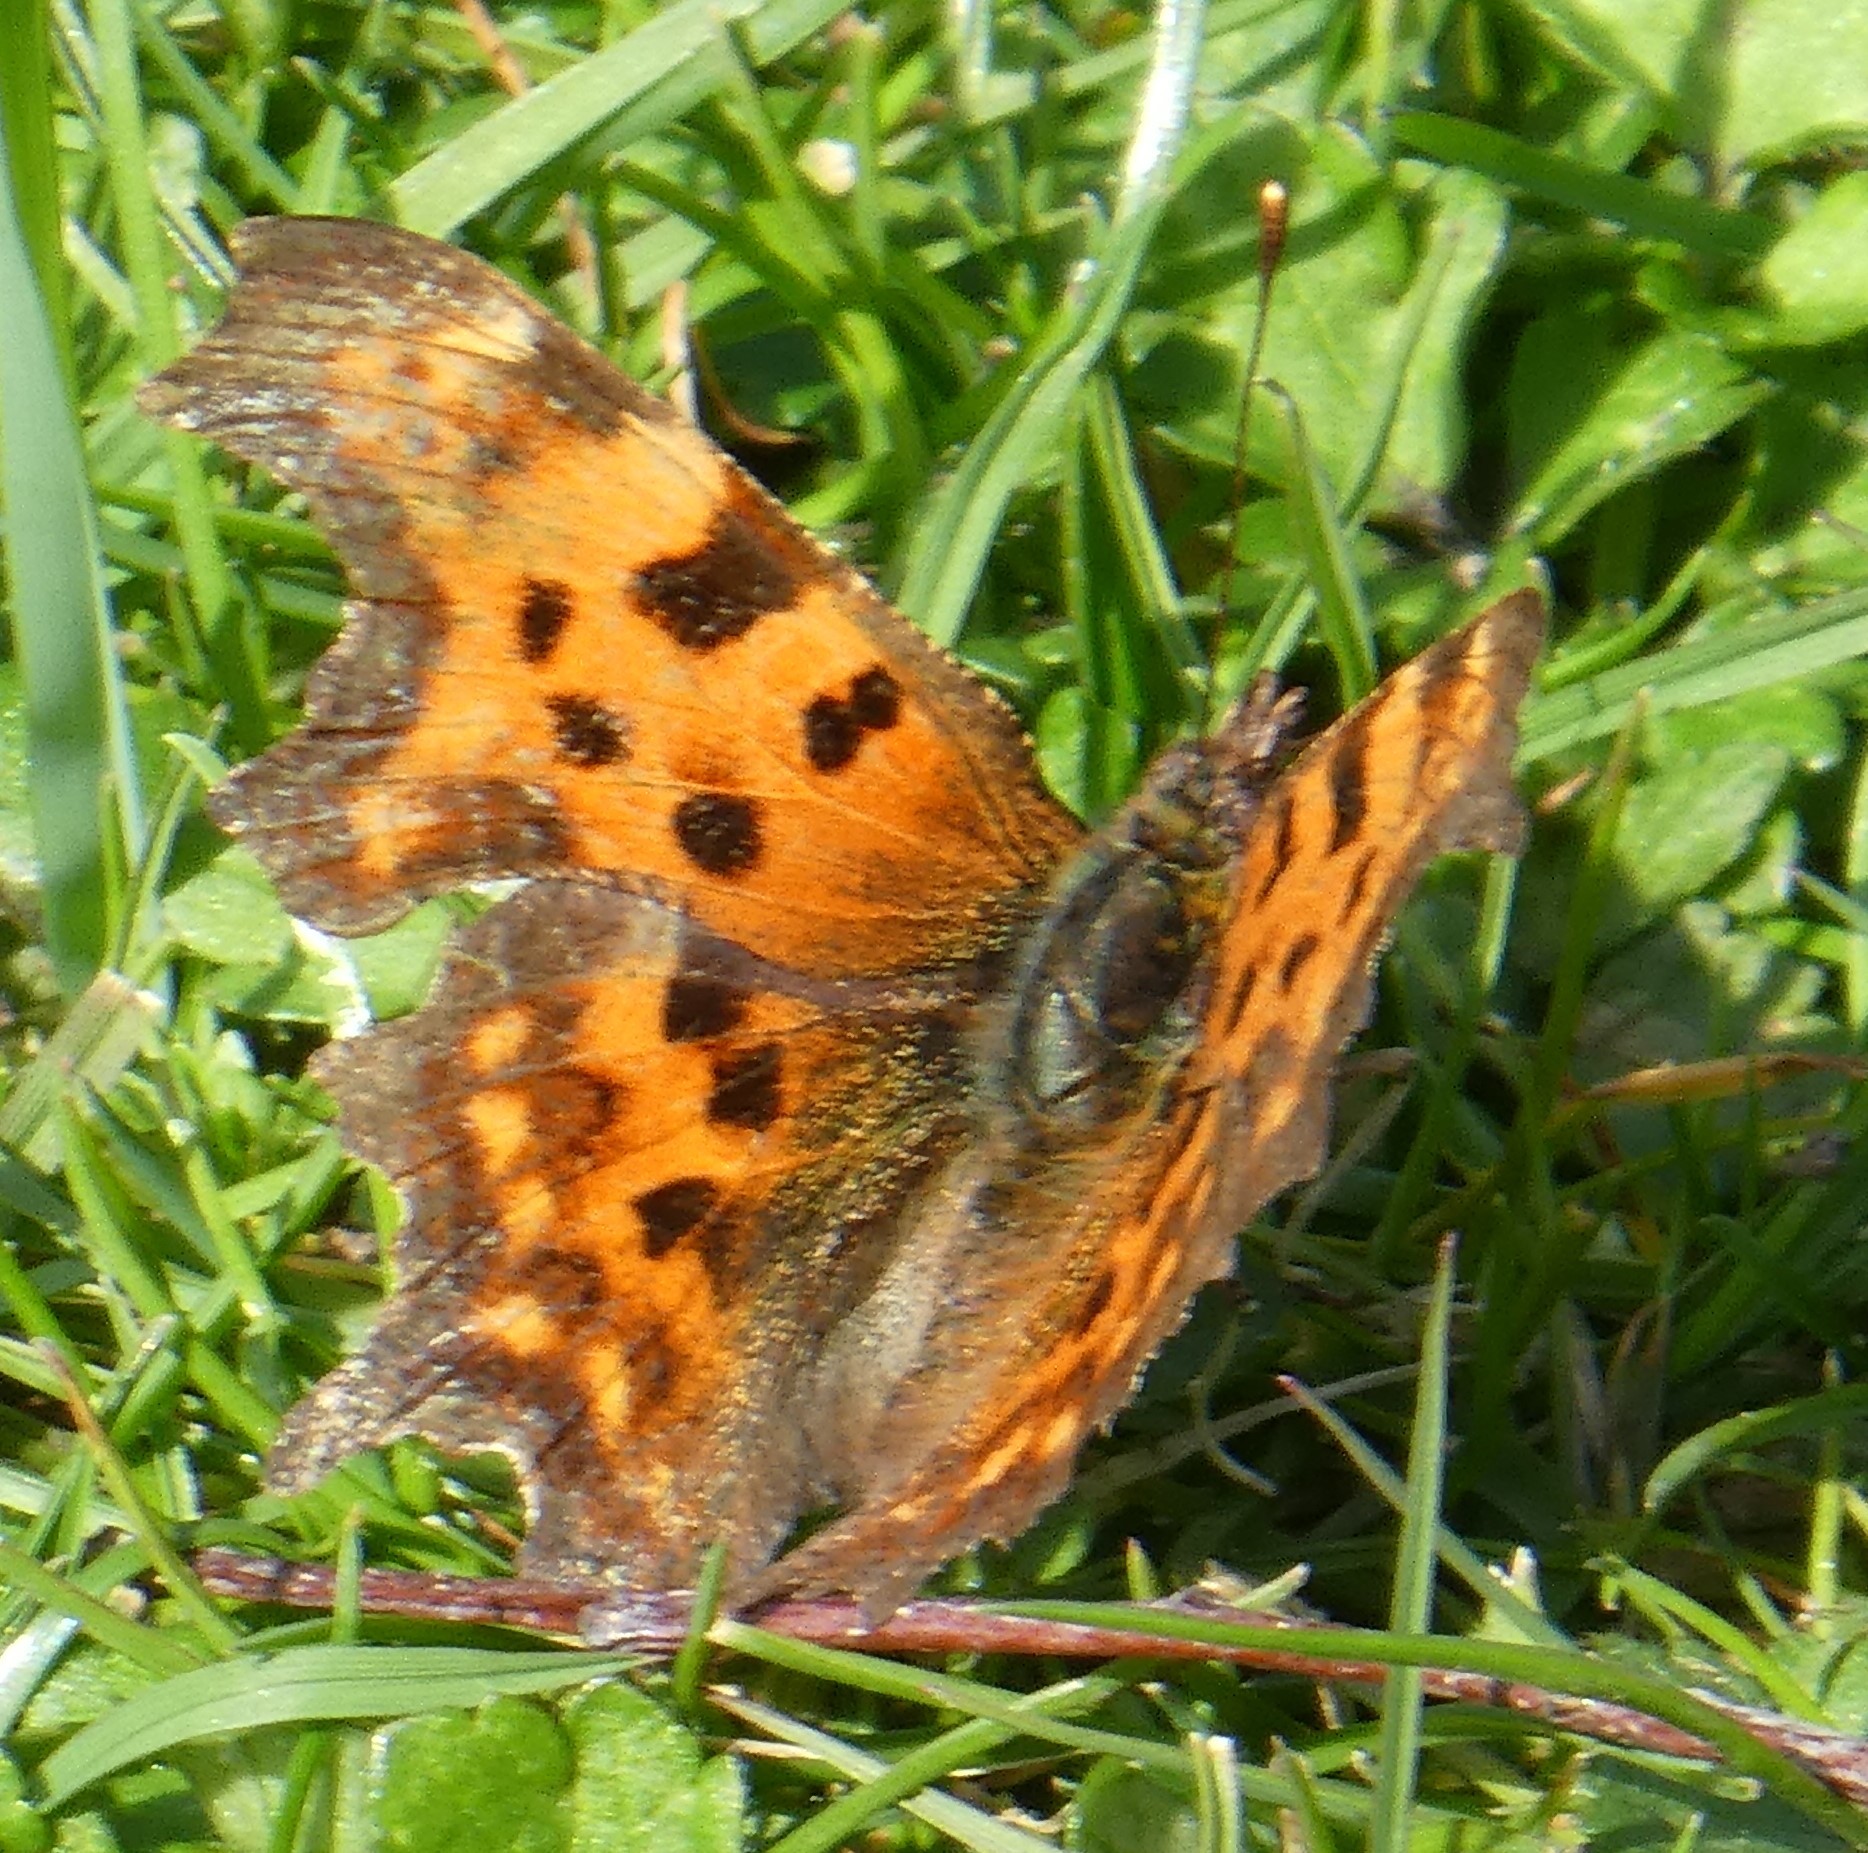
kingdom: Animalia
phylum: Arthropoda
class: Insecta
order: Lepidoptera
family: Nymphalidae
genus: Polygonia
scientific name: Polygonia c-album
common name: Comma
